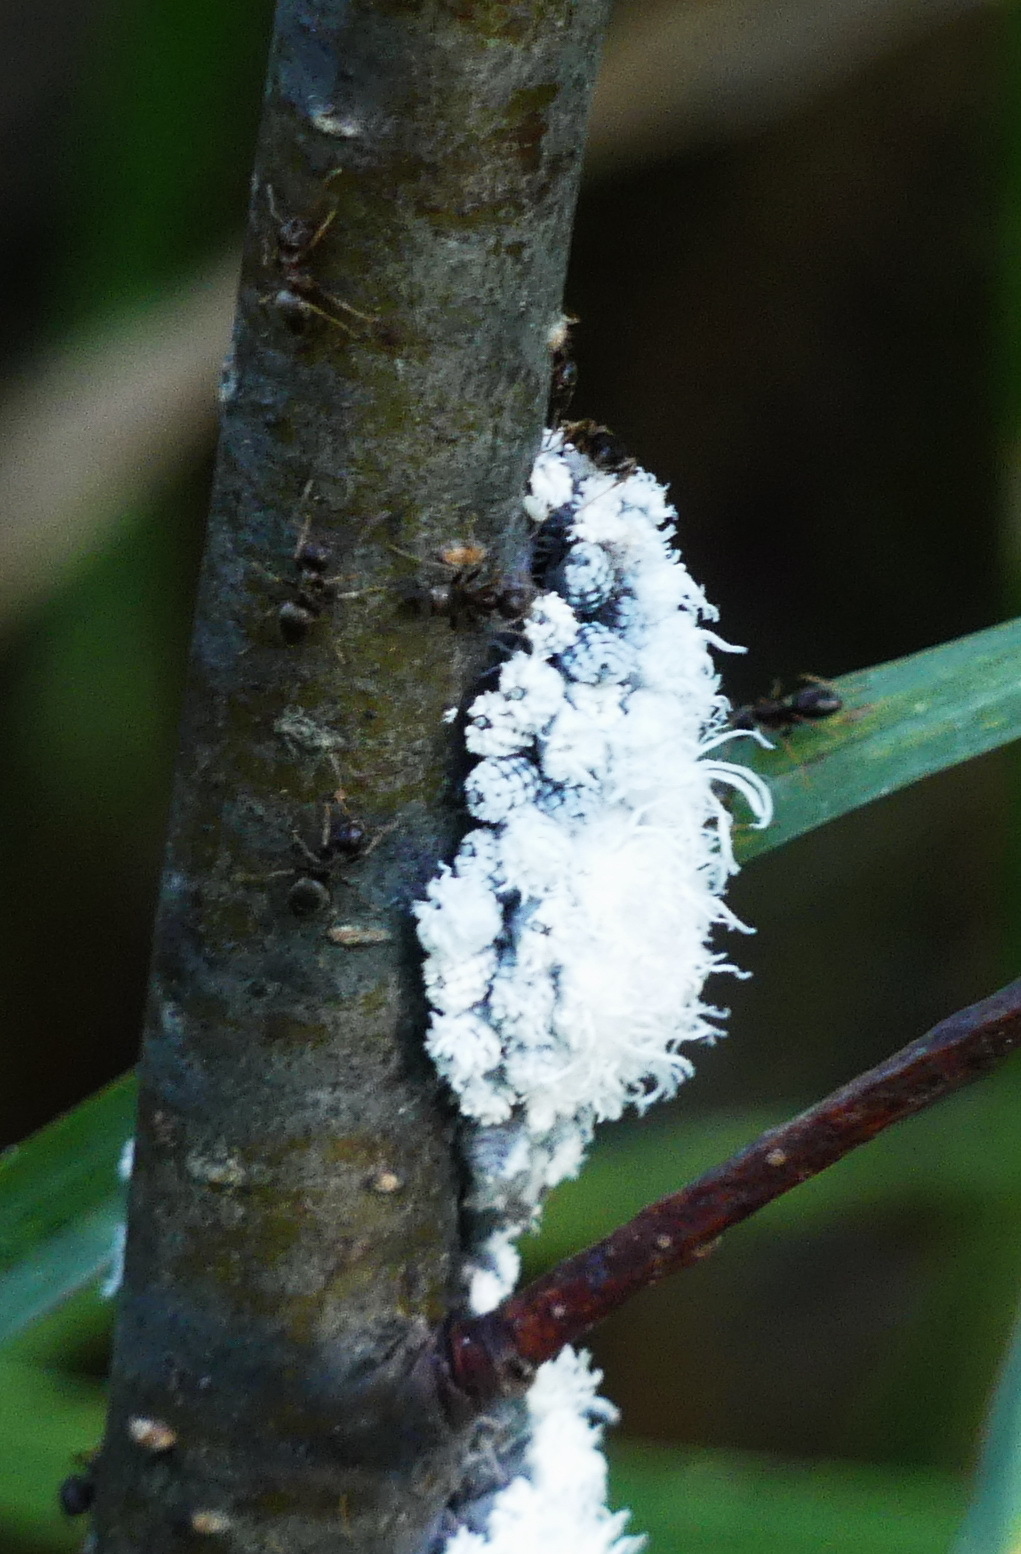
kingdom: Animalia
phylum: Arthropoda
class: Insecta
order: Hemiptera
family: Aphididae
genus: Prociphilus
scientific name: Prociphilus tessellatus
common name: Woolly alder aphid
